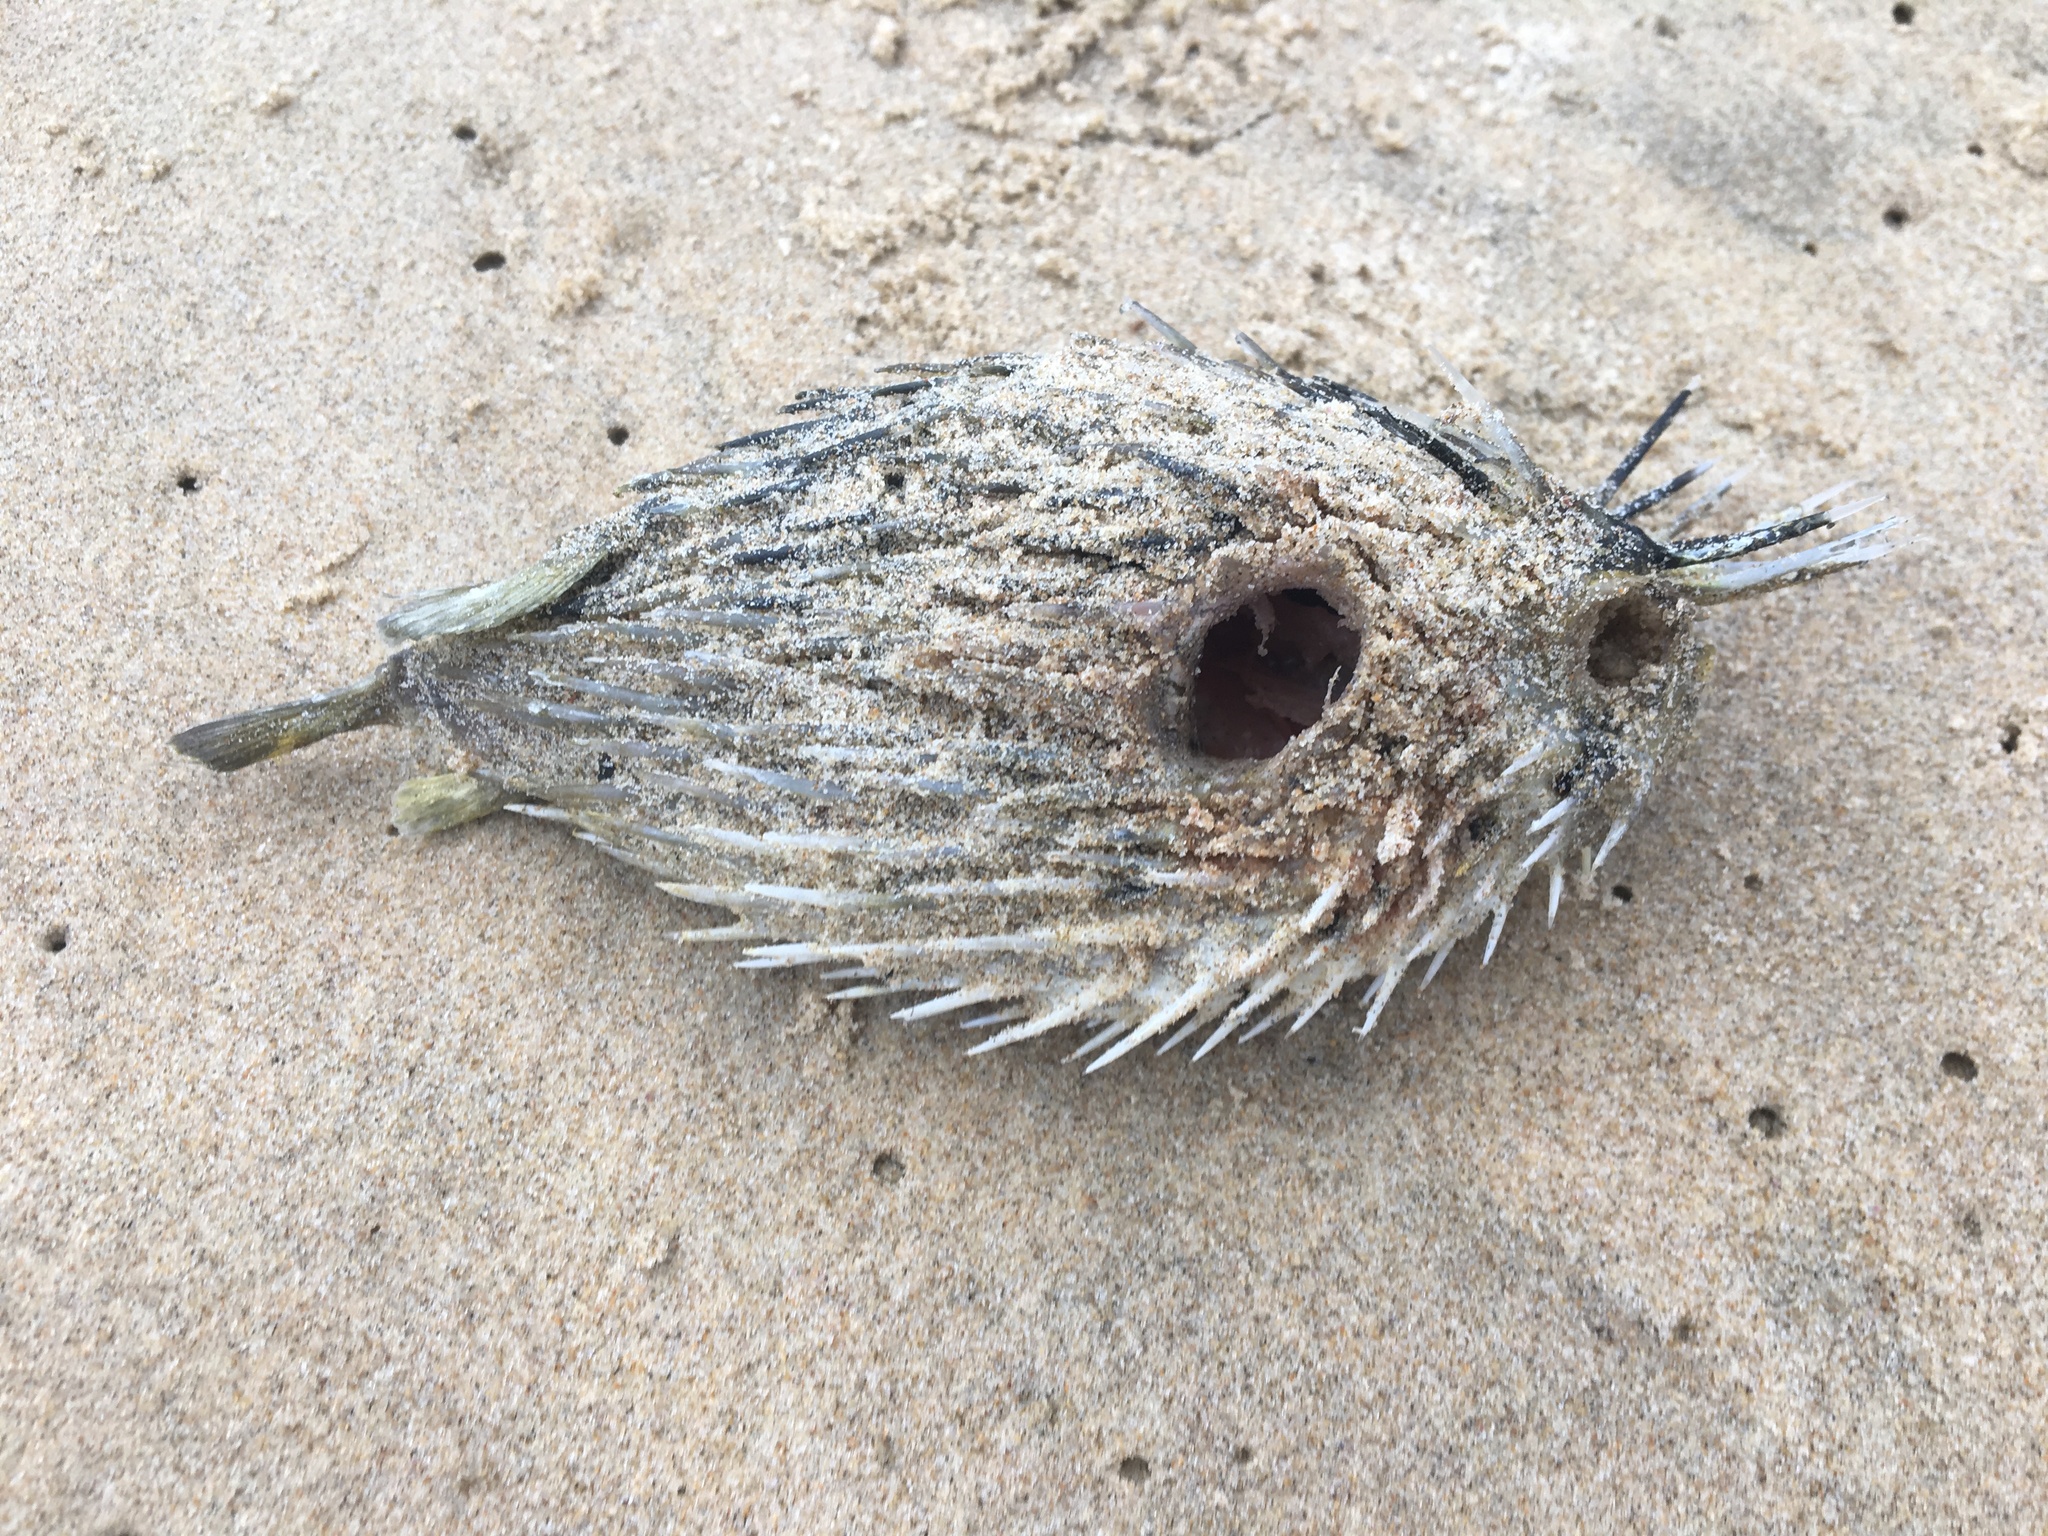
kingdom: Animalia
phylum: Chordata
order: Tetraodontiformes
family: Diodontidae
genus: Diodon
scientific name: Diodon holocanthus
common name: Balloonfish
